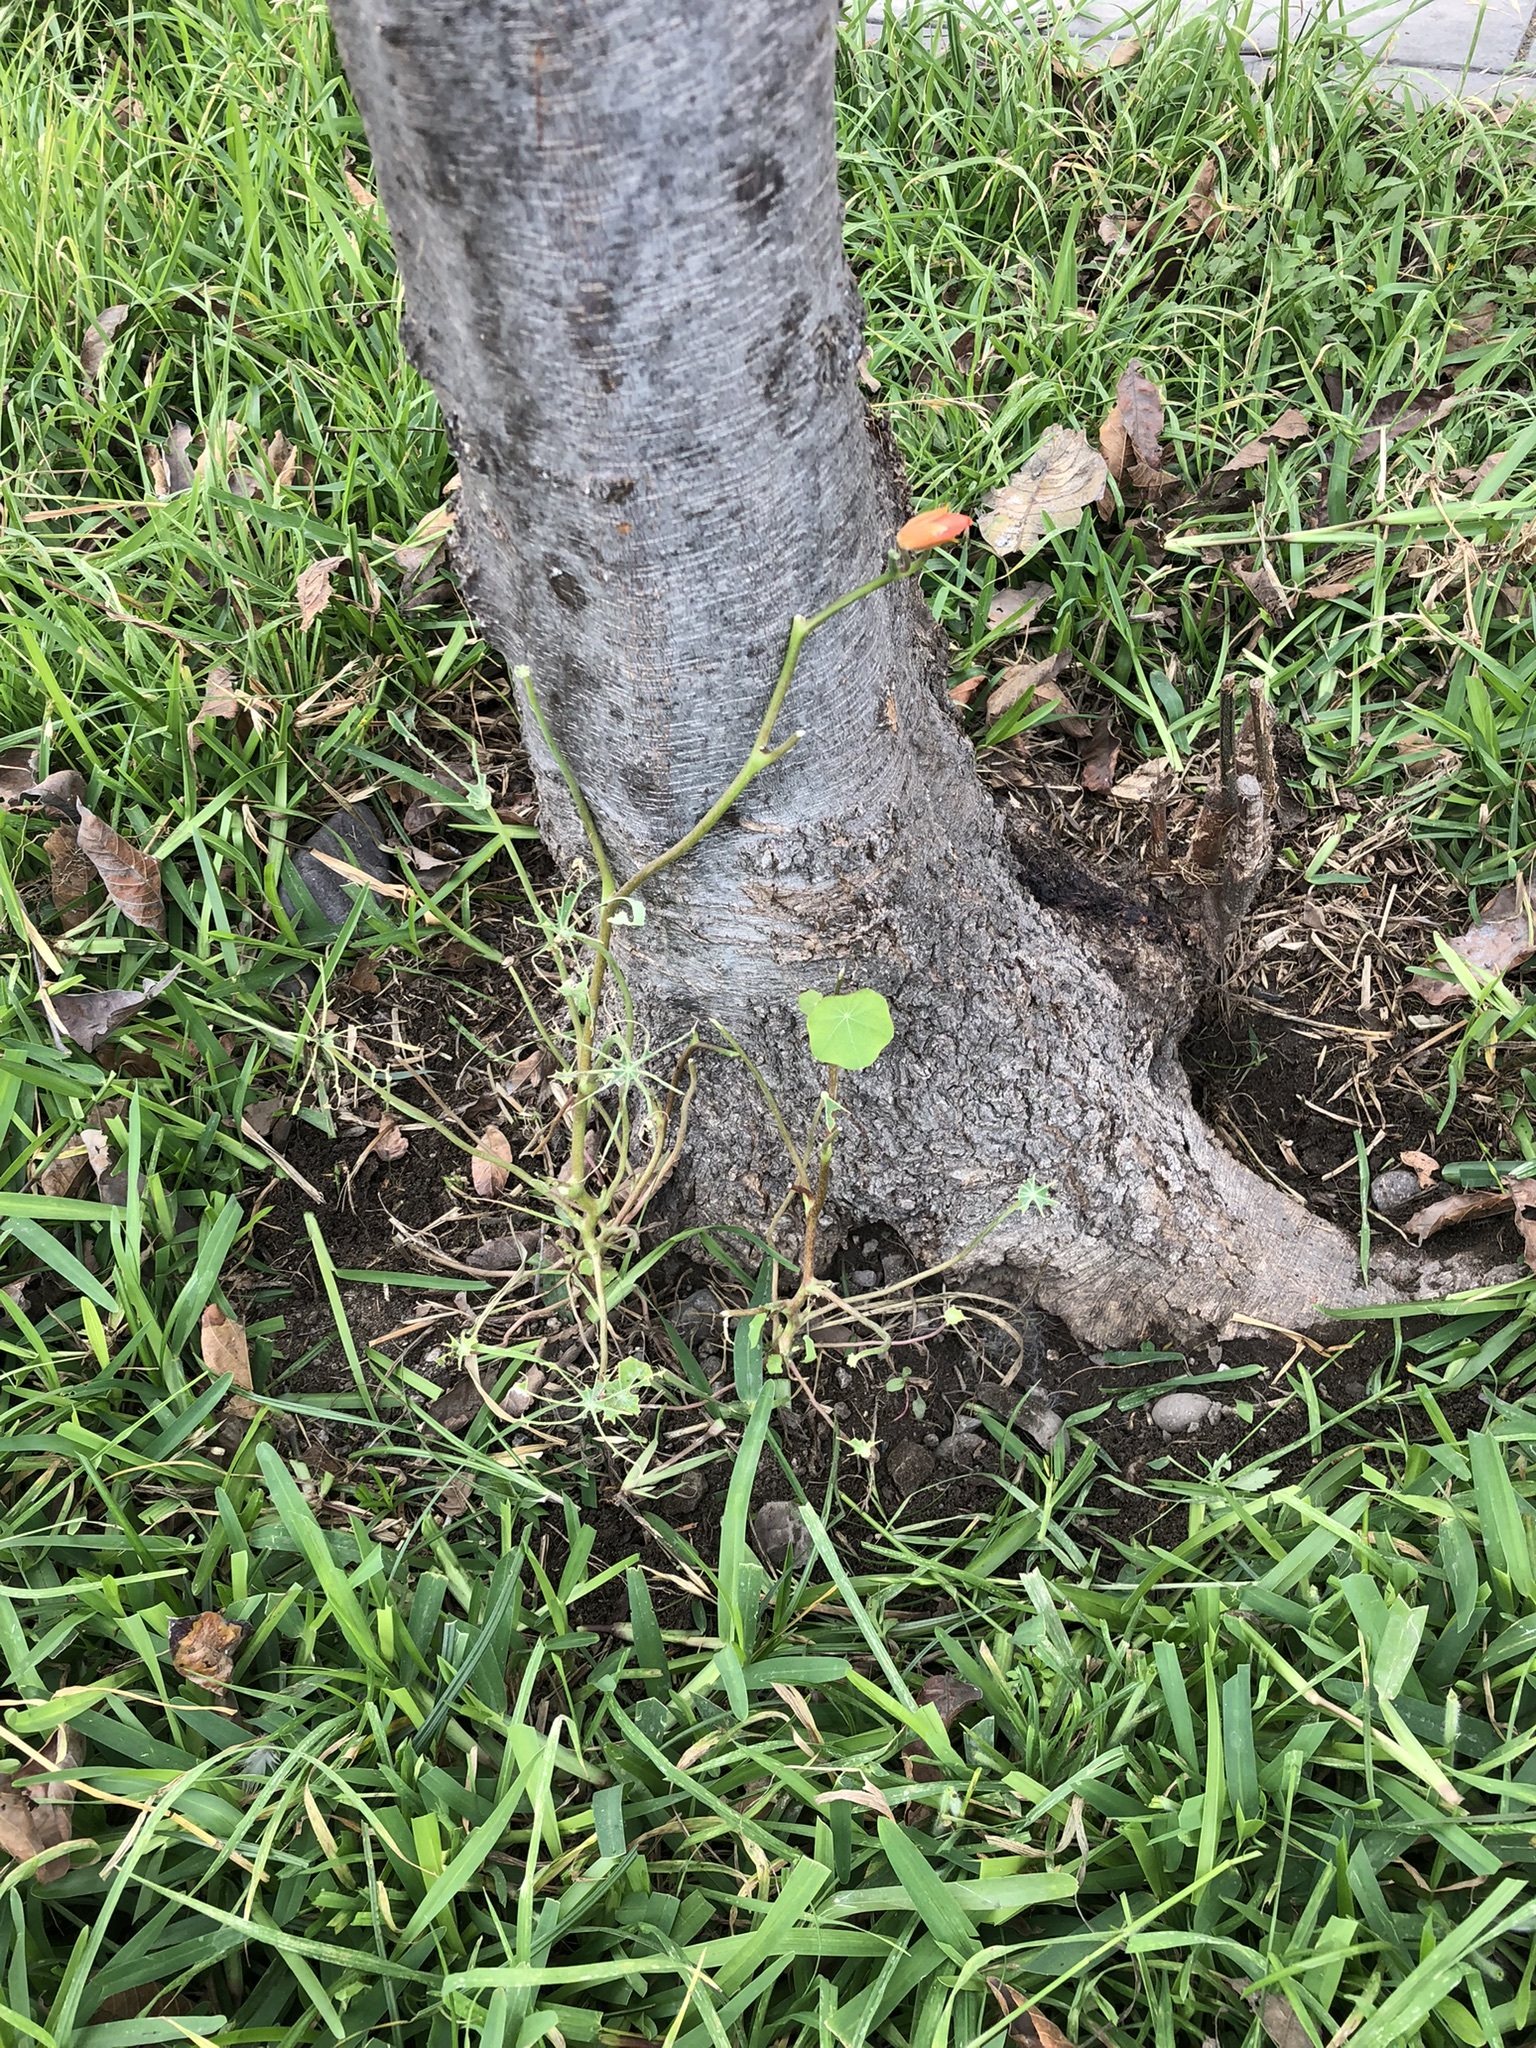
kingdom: Plantae
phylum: Tracheophyta
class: Magnoliopsida
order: Brassicales
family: Tropaeolaceae
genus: Tropaeolum
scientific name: Tropaeolum majus
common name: Nasturtium
